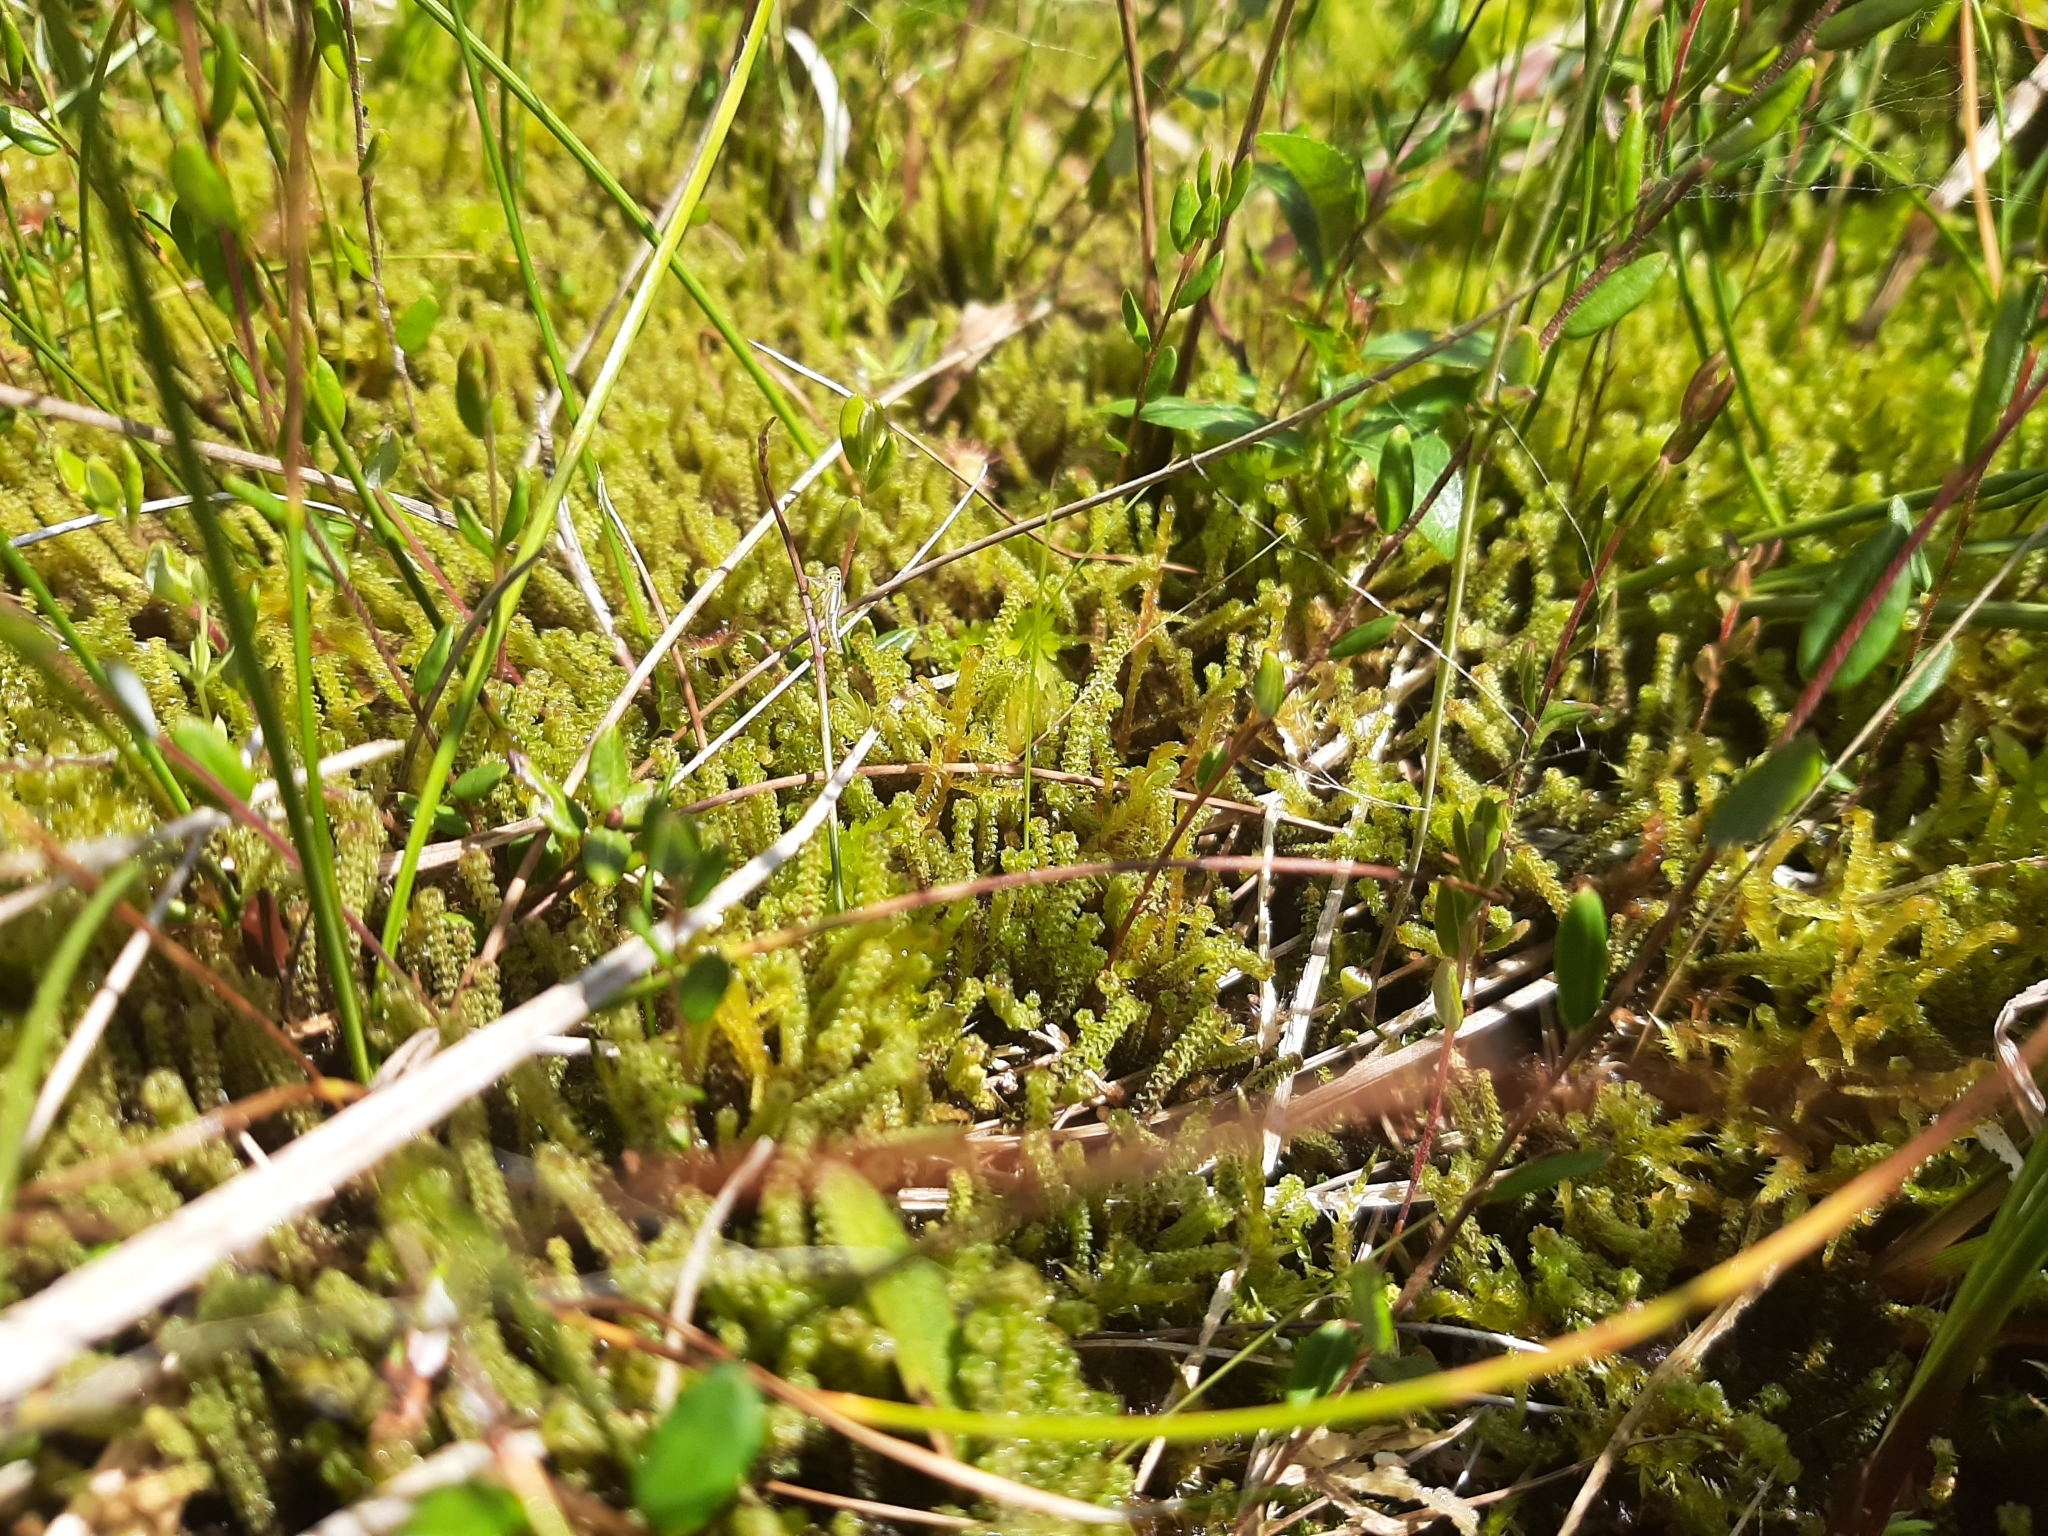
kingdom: Plantae
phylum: Bryophyta
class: Bryopsida
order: Splachnales
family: Meesiaceae
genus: Paludella
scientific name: Paludella squarrosa
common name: Tufted fen moss
